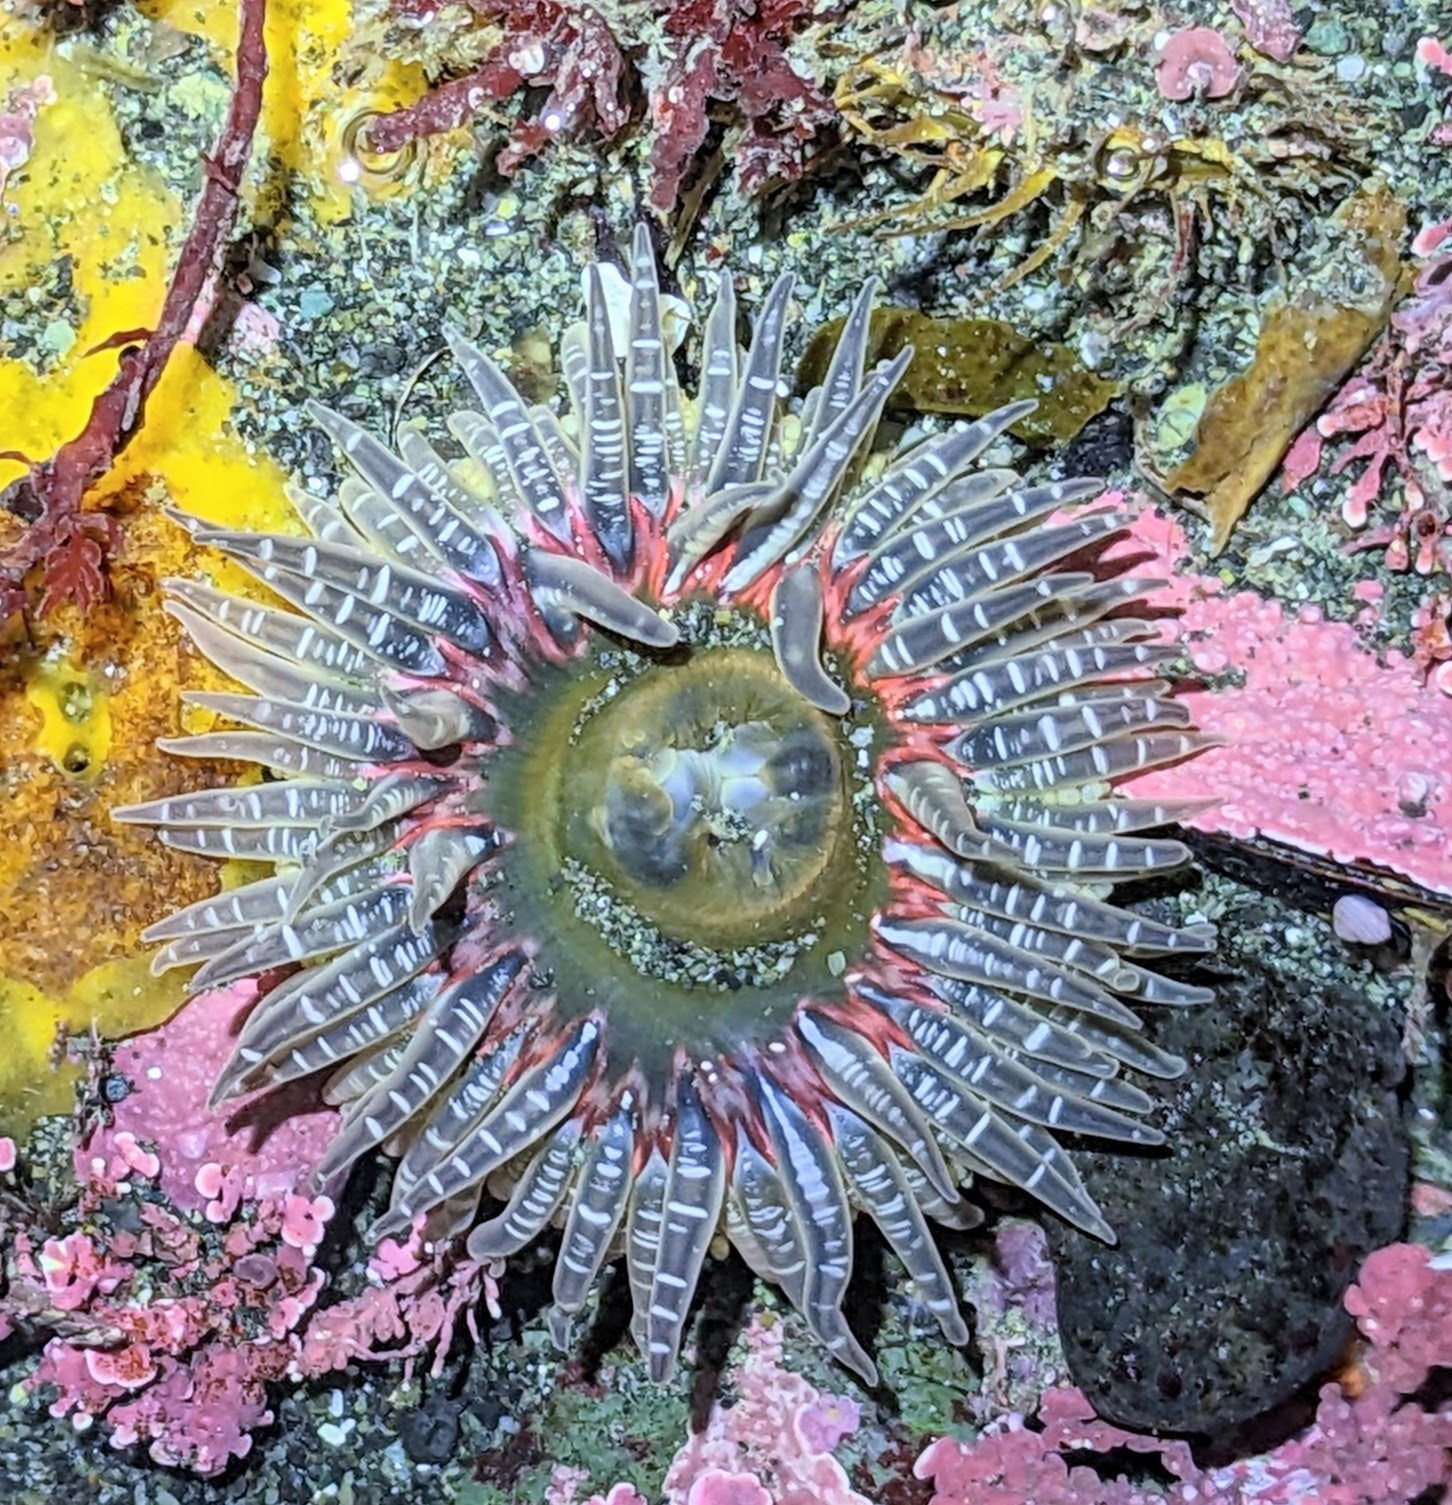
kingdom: Animalia
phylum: Cnidaria
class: Anthozoa
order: Actiniaria
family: Actiniidae
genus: Anthopleura
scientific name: Anthopleura artemisia
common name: Buried sea anemone
